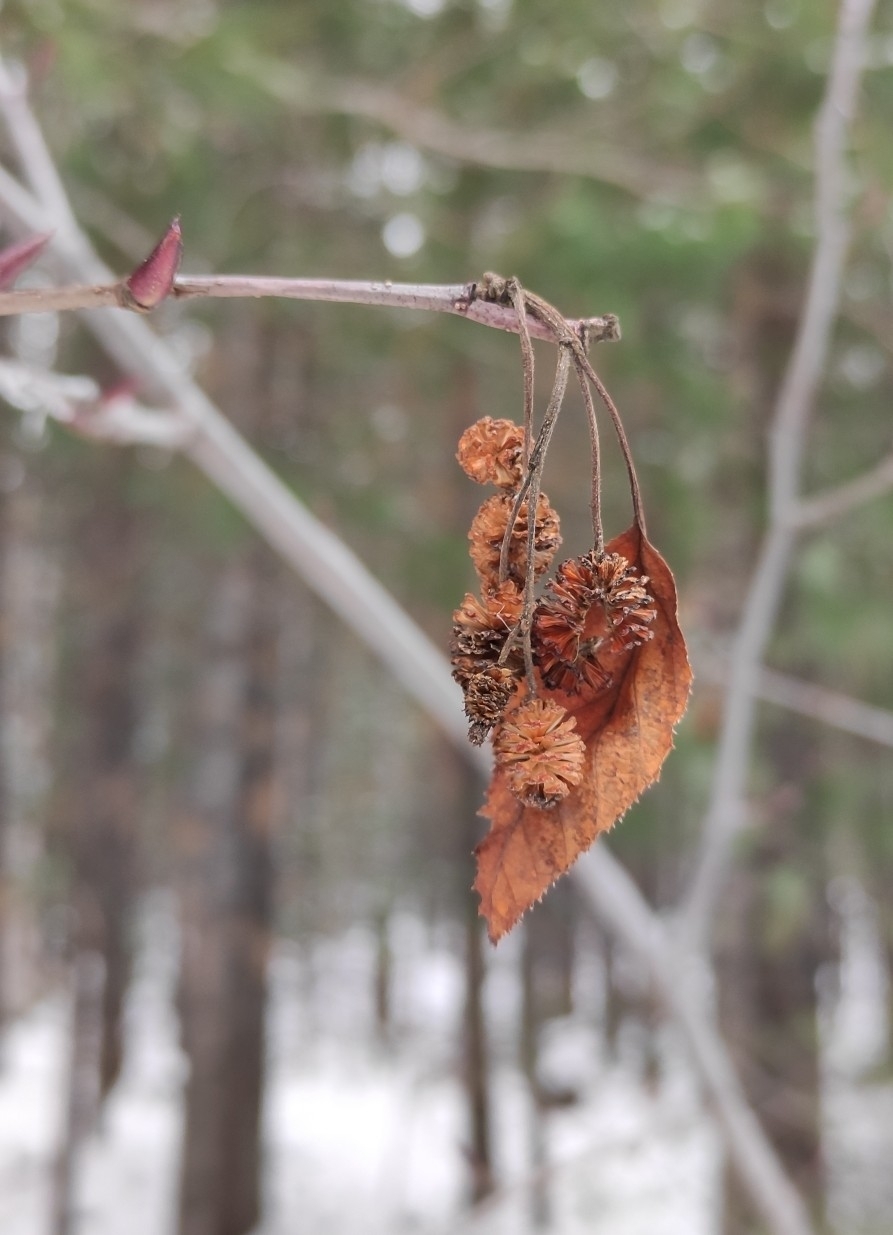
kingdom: Plantae
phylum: Tracheophyta
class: Magnoliopsida
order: Fagales
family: Betulaceae
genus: Alnus
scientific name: Alnus alnobetula
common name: Green alder
